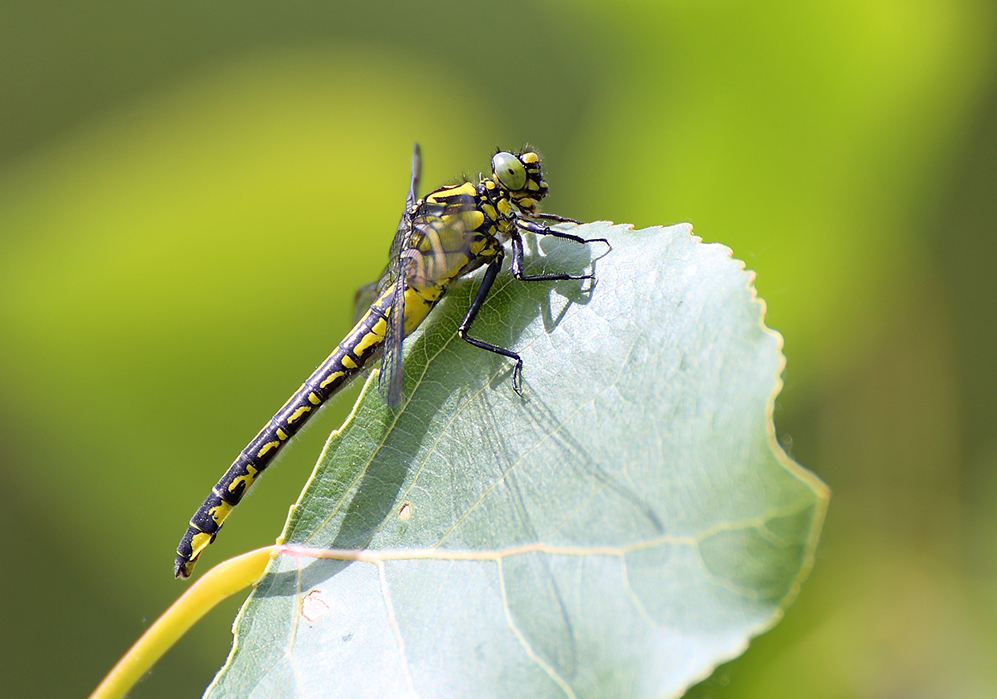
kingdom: Animalia
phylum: Arthropoda
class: Insecta
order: Odonata
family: Gomphidae
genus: Gomphus
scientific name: Gomphus vulgatissimus
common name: Club-tailed dragonfly
